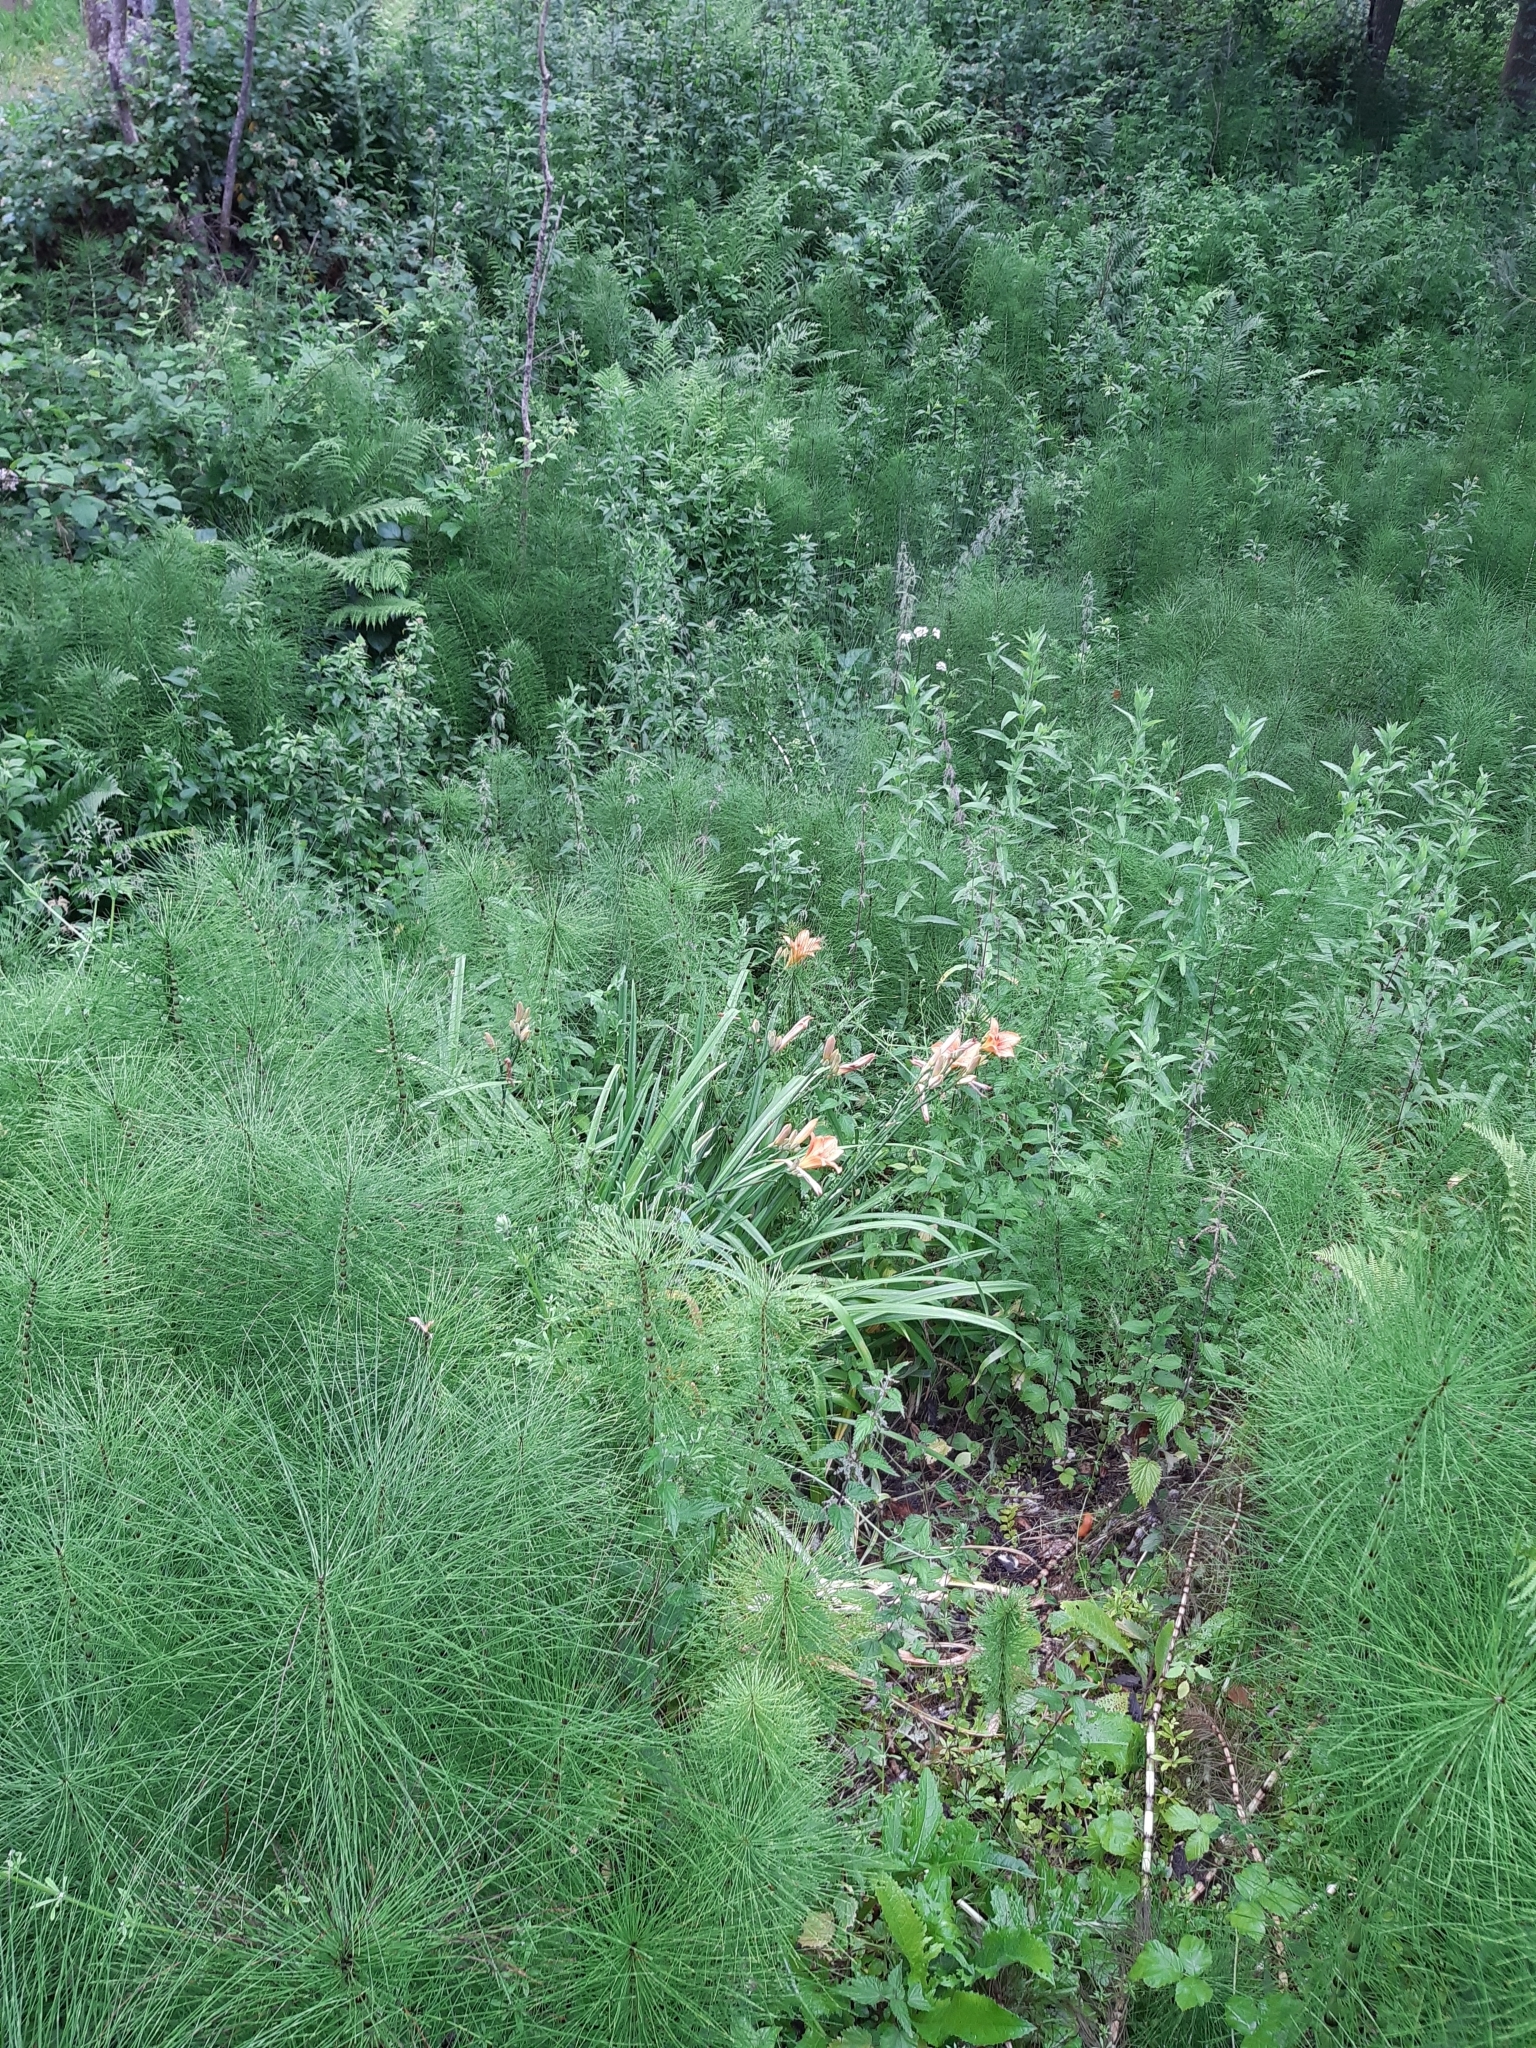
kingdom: Plantae
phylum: Tracheophyta
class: Liliopsida
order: Asparagales
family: Asphodelaceae
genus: Hemerocallis
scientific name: Hemerocallis fulva
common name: Orange day-lily
